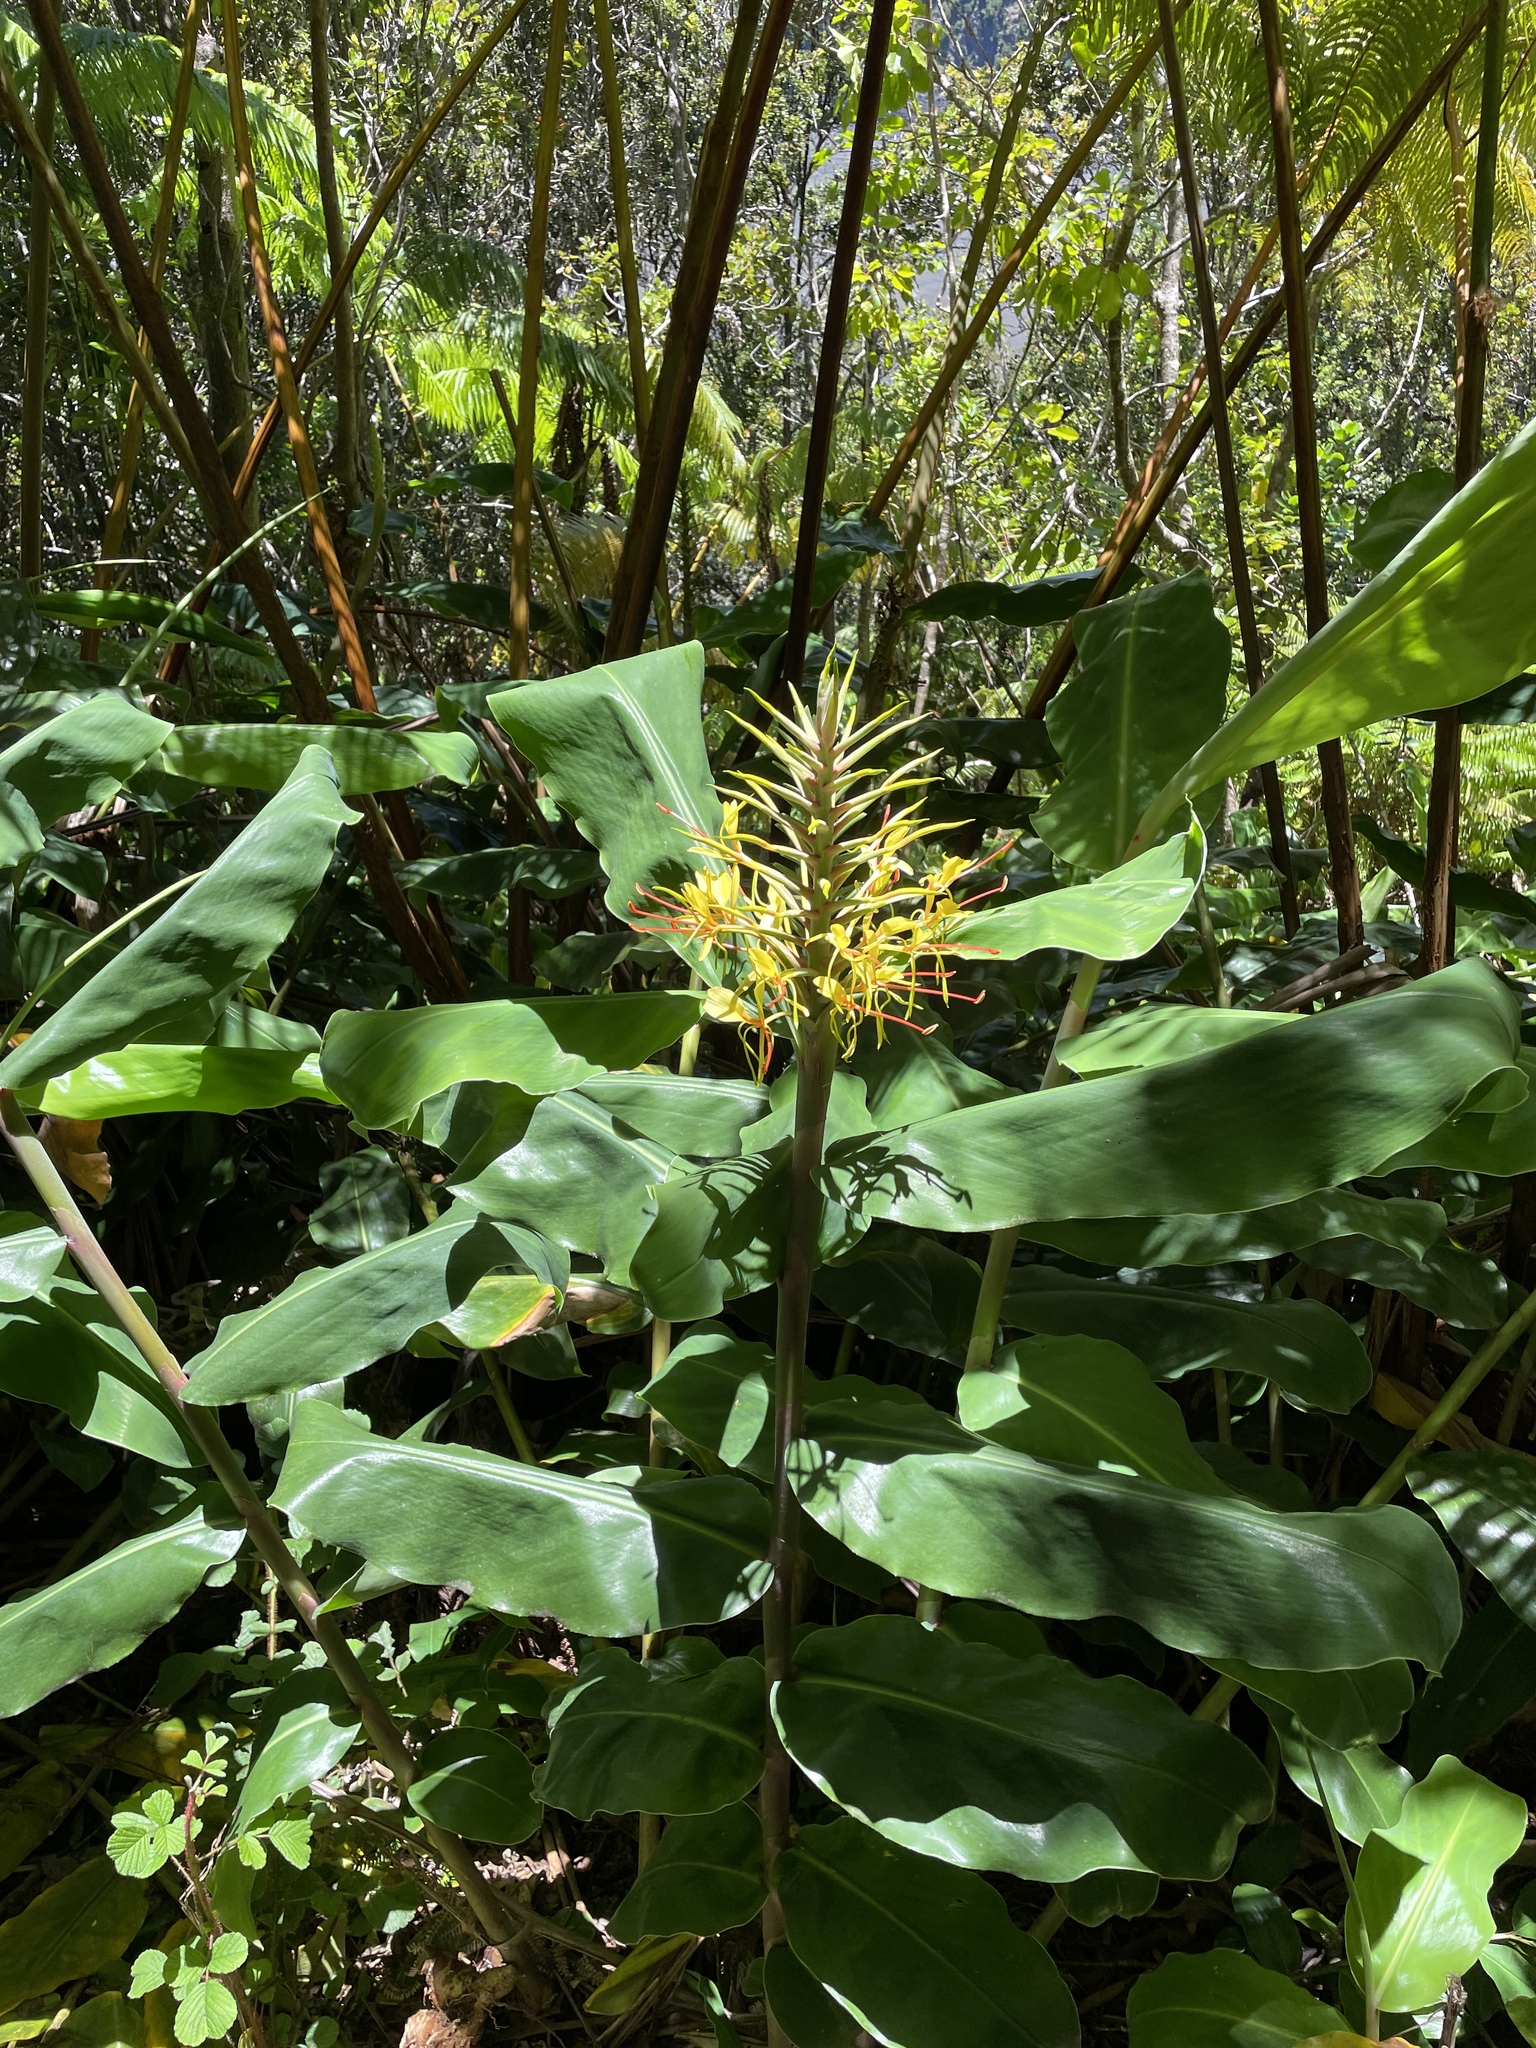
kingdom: Plantae
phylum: Tracheophyta
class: Liliopsida
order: Zingiberales
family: Zingiberaceae
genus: Hedychium
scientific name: Hedychium gardnerianum
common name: Himalayan ginger
